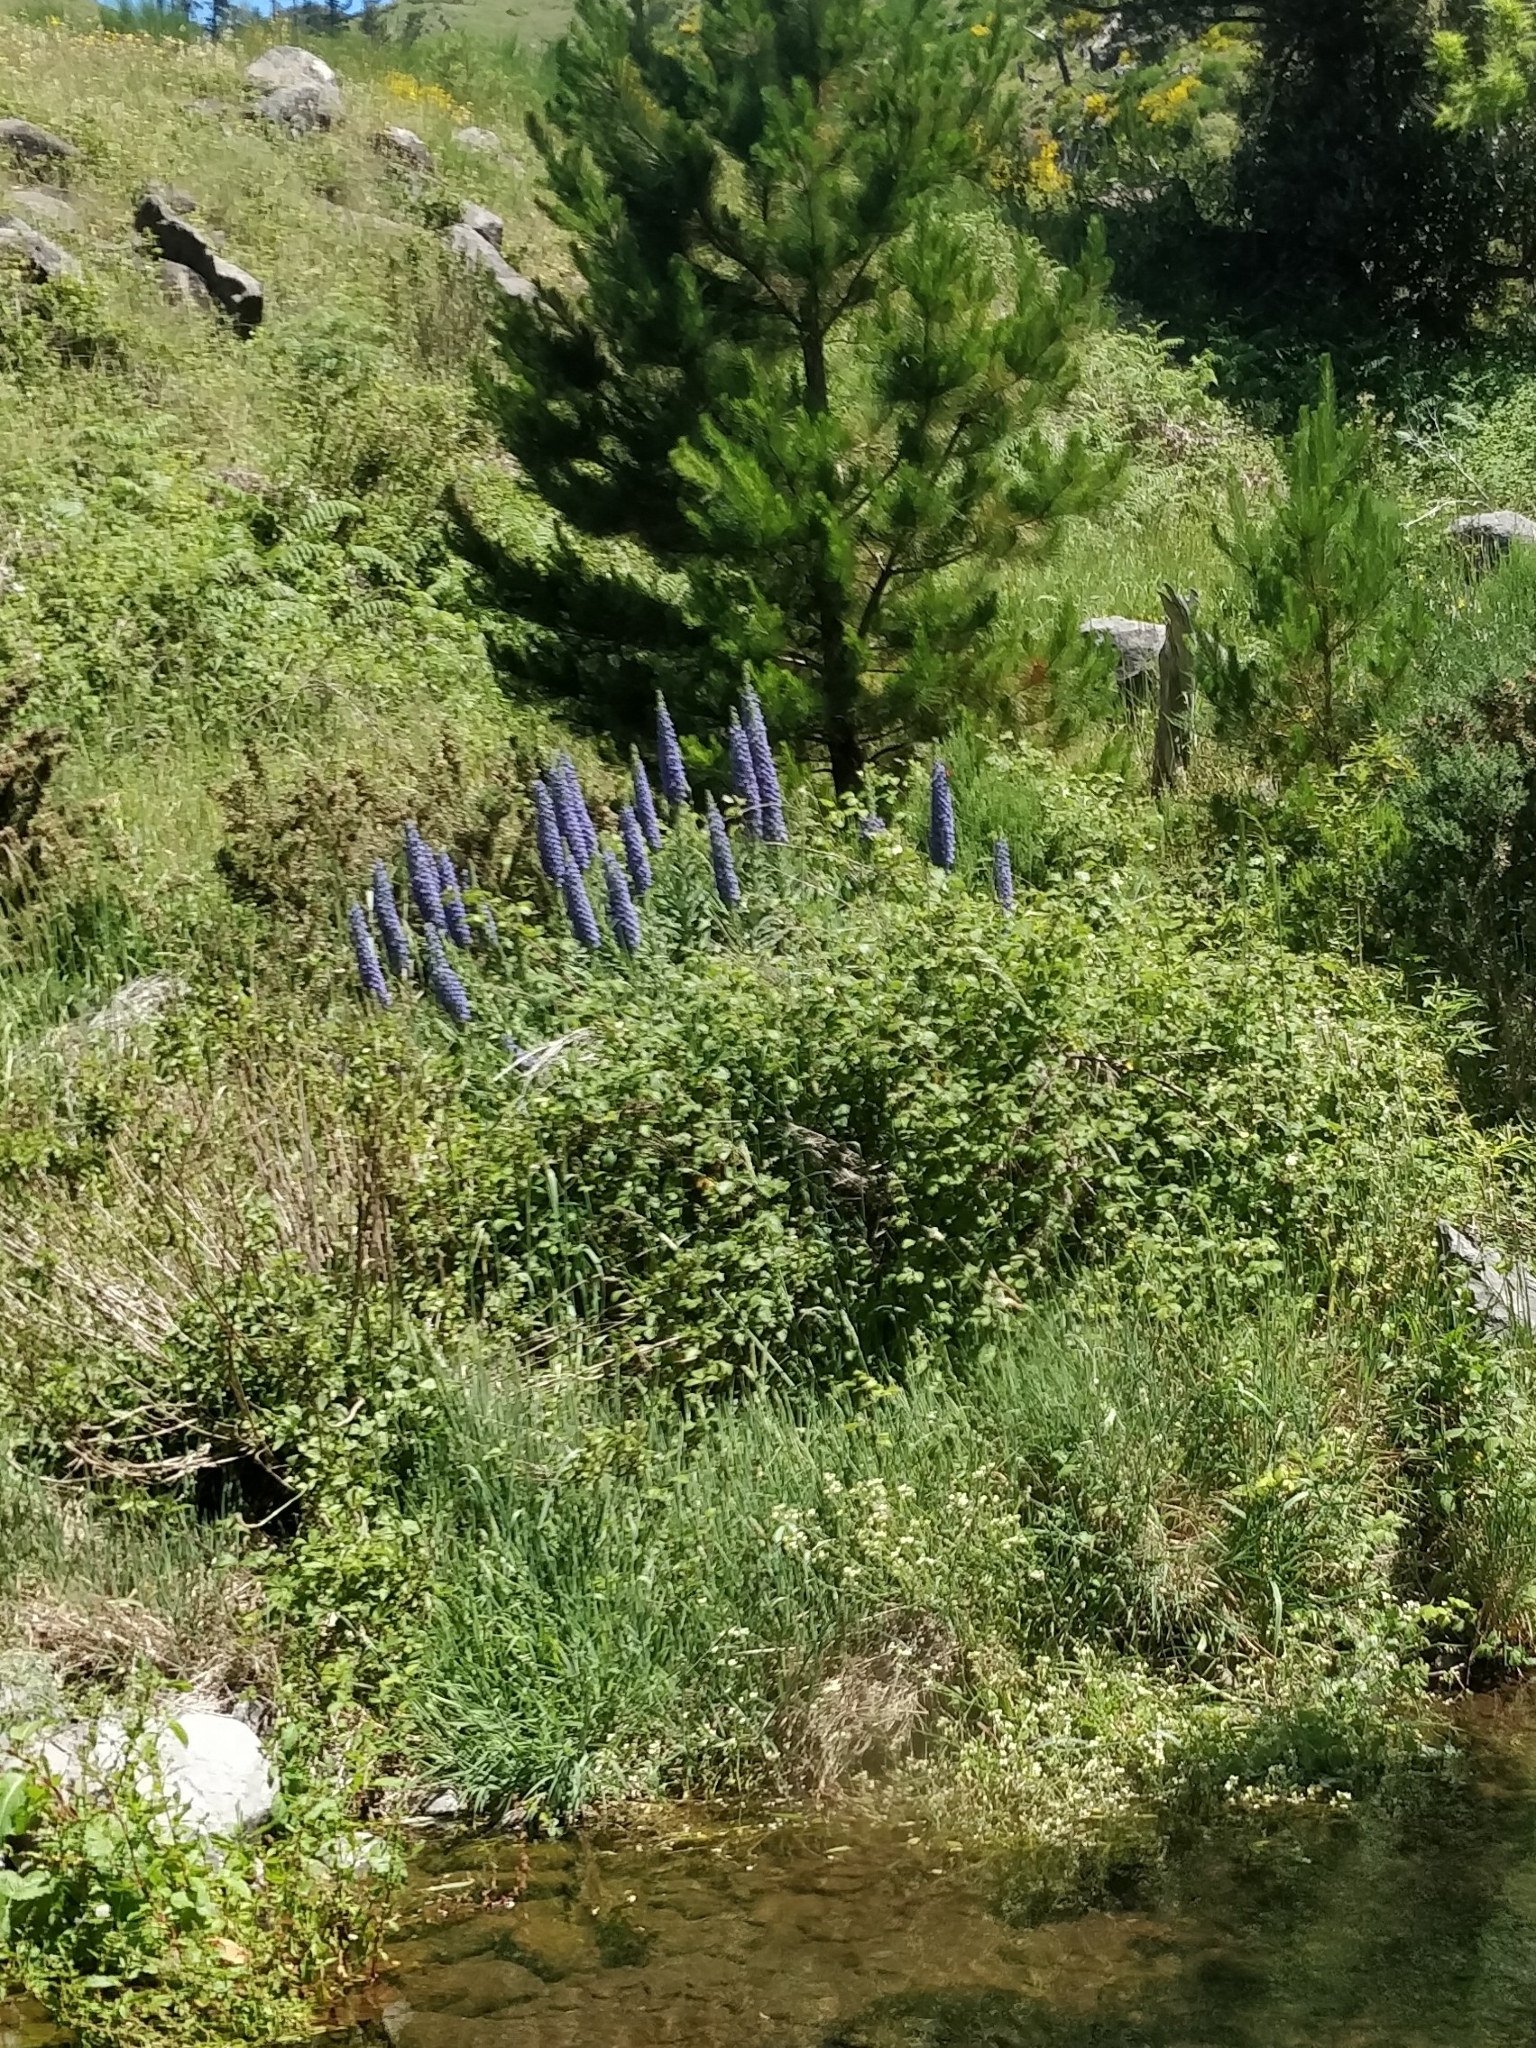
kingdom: Plantae
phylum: Tracheophyta
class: Magnoliopsida
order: Boraginales
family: Boraginaceae
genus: Echium
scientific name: Echium candicans
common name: Pride of madeira
